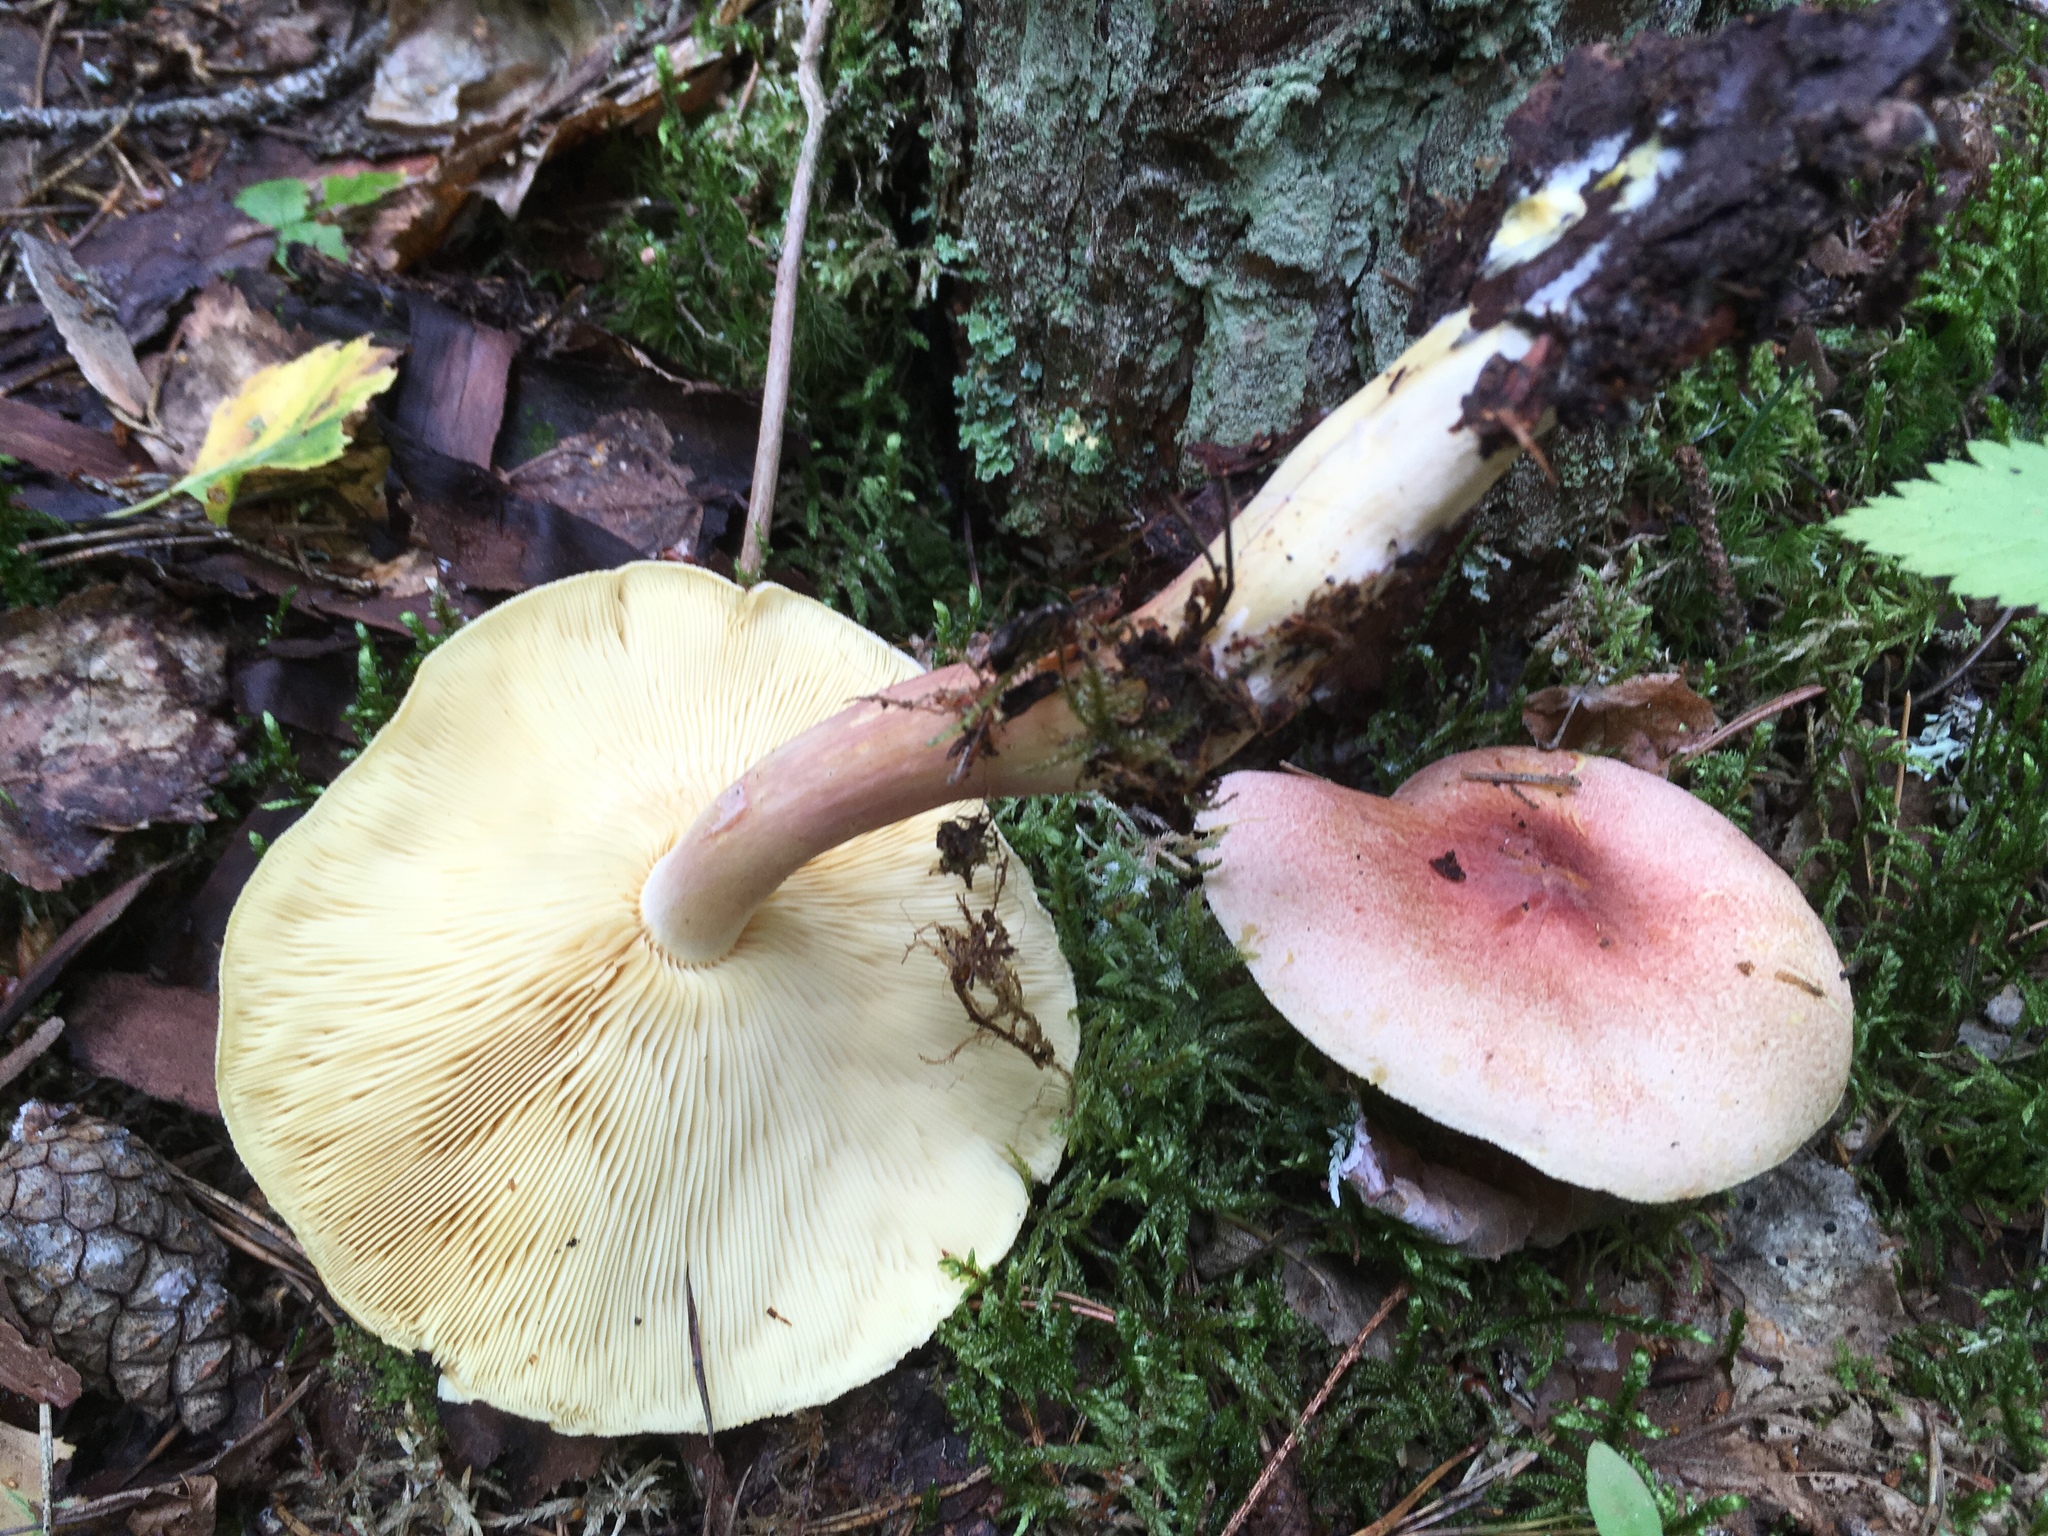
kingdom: Fungi
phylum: Basidiomycota
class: Agaricomycetes
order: Agaricales
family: Tricholomataceae
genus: Tricholomopsis
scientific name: Tricholomopsis rutilans
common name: Plums and custard
